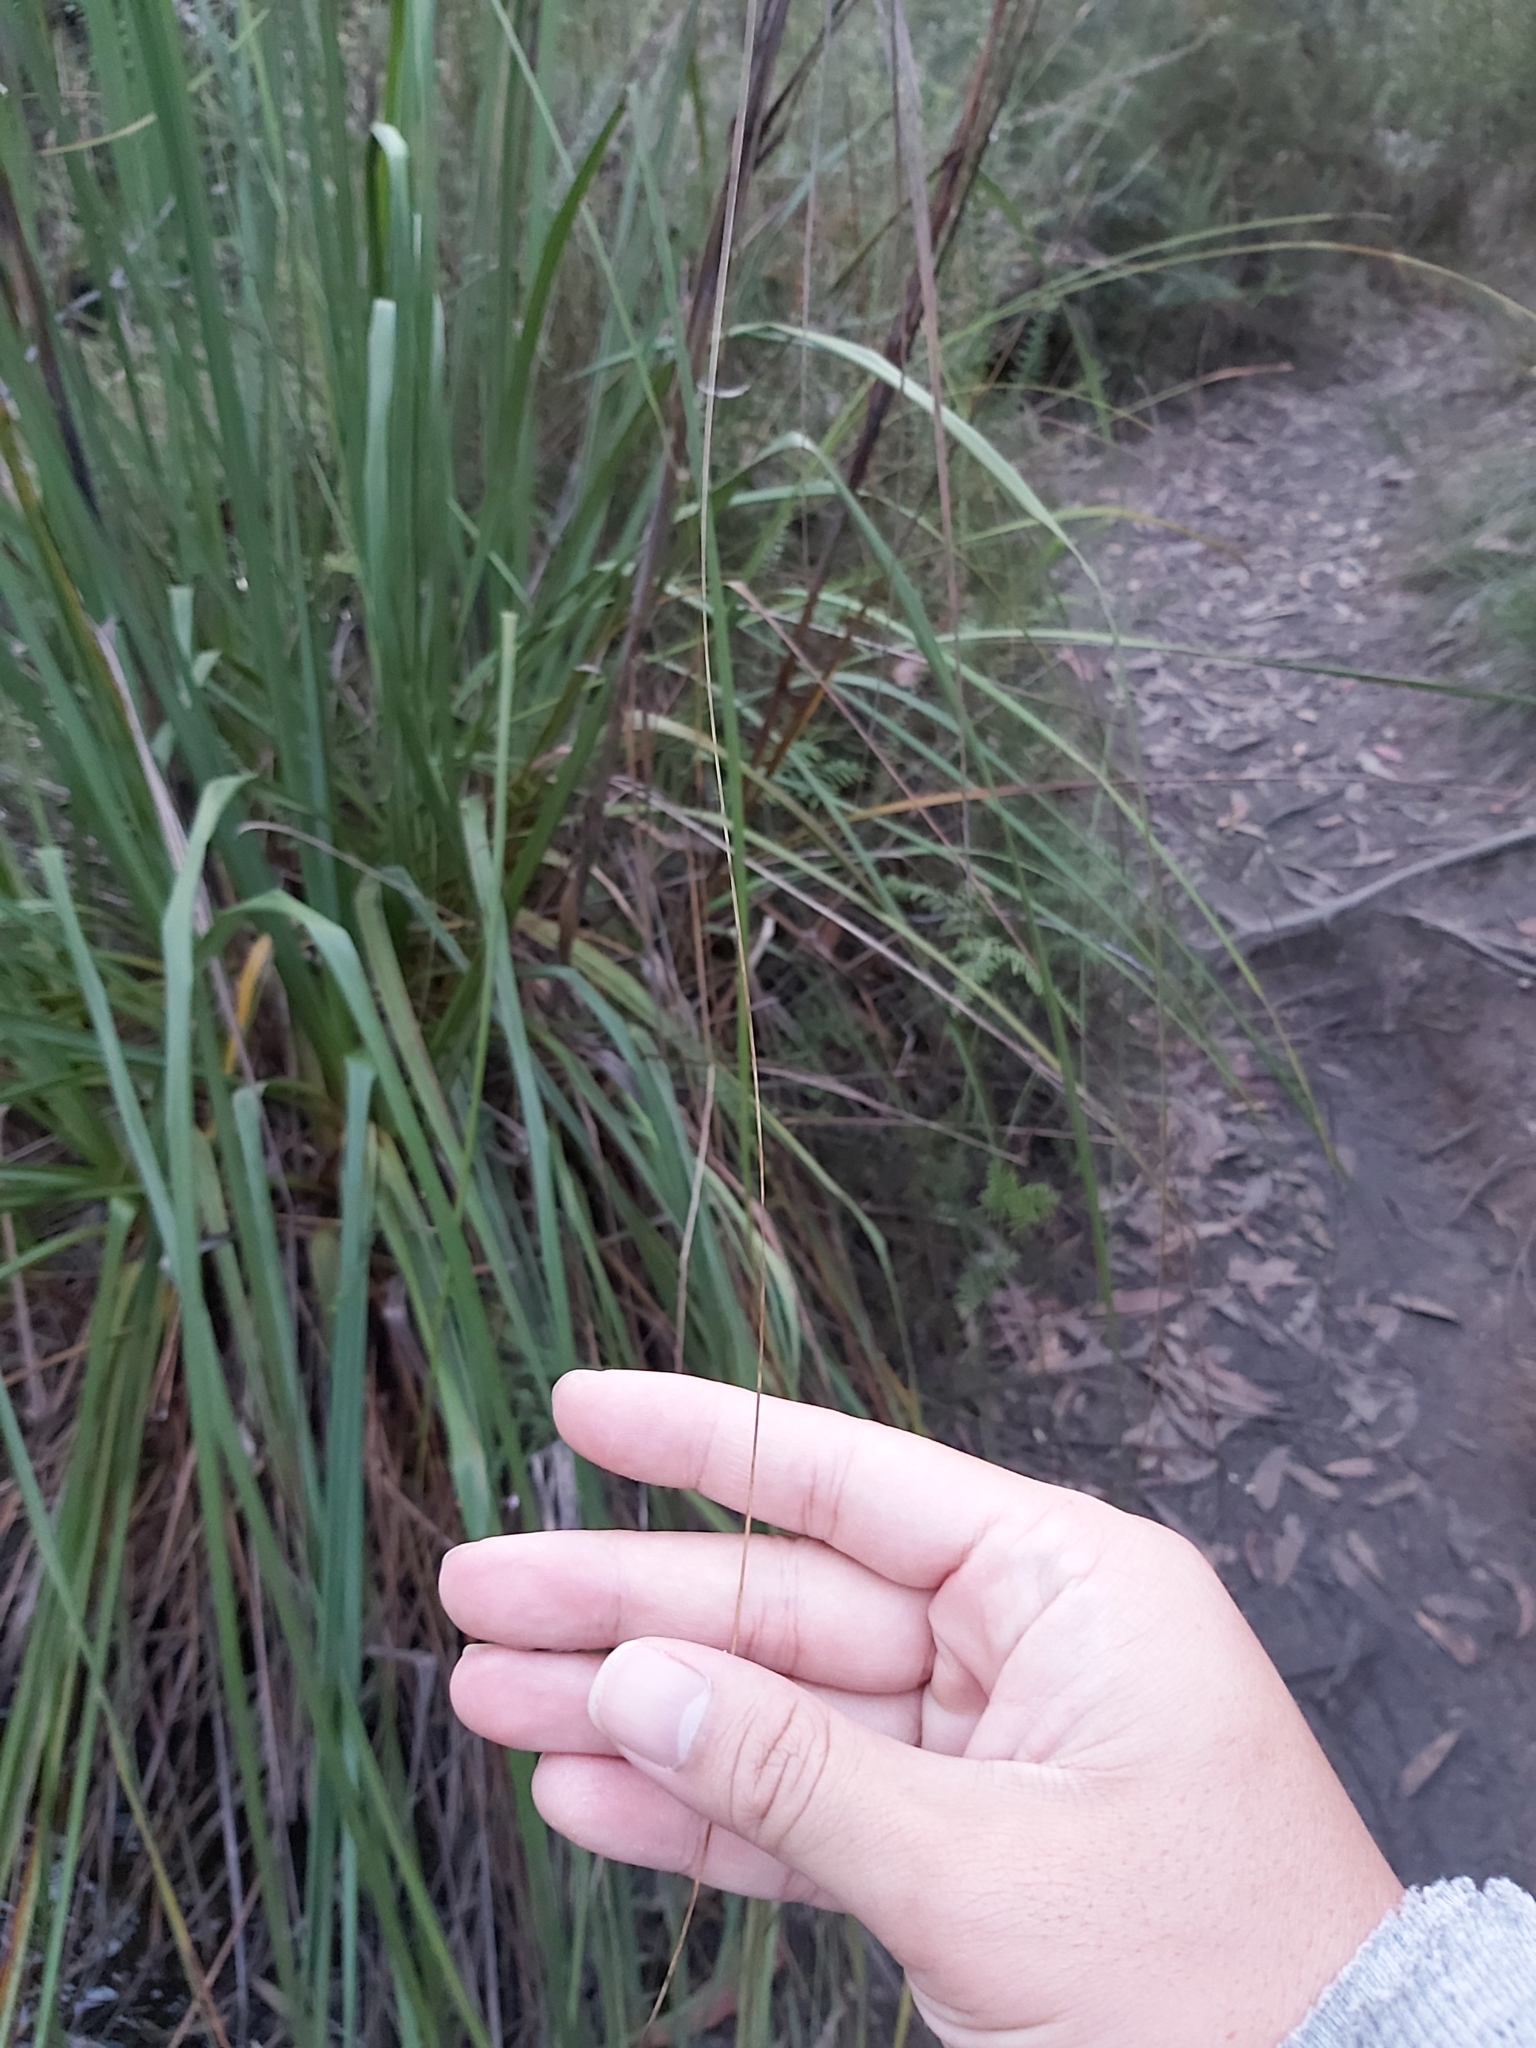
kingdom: Plantae
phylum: Tracheophyta
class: Liliopsida
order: Poales
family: Cyperaceae
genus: Gahnia
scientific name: Gahnia sieberiana
